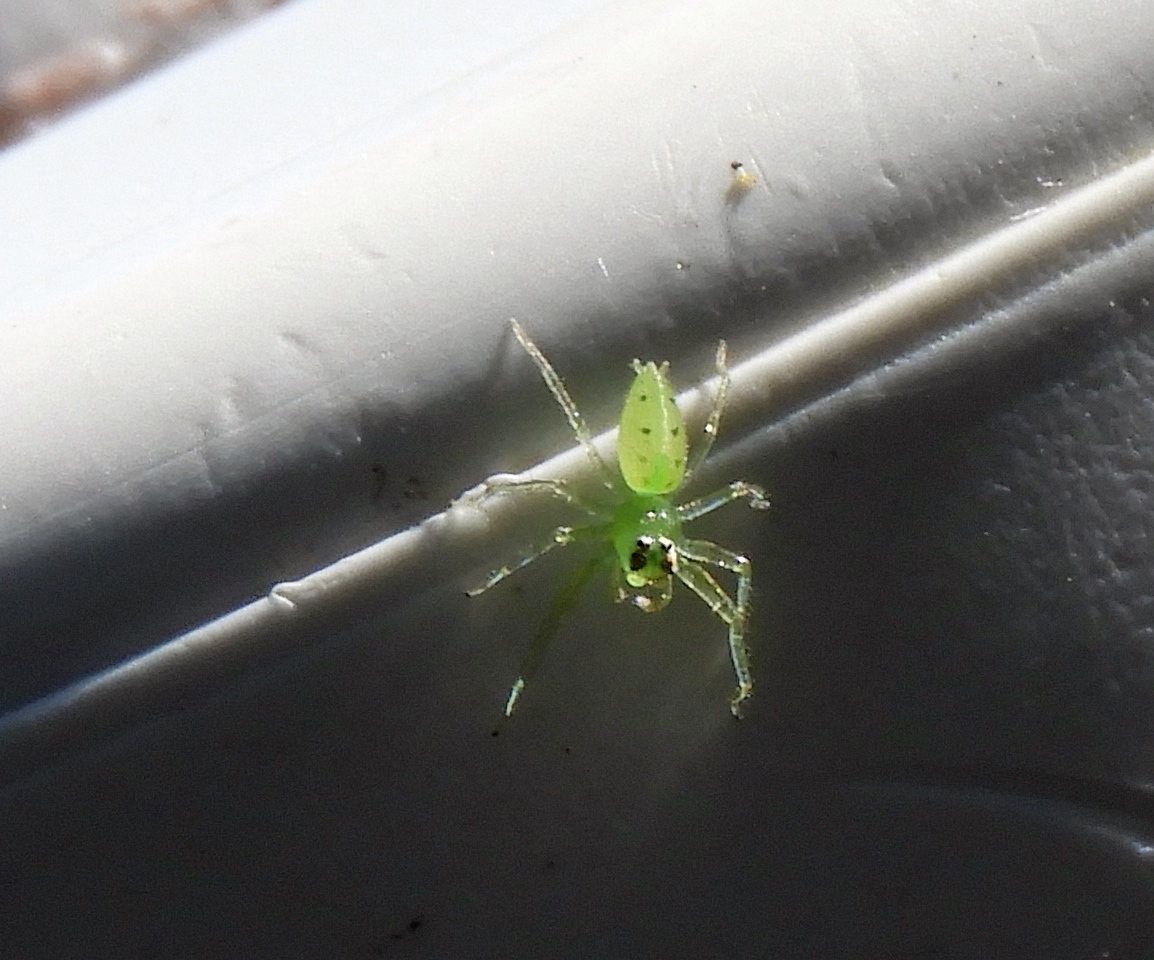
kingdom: Animalia
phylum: Arthropoda
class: Arachnida
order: Araneae
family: Salticidae
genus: Lyssomanes
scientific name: Lyssomanes
